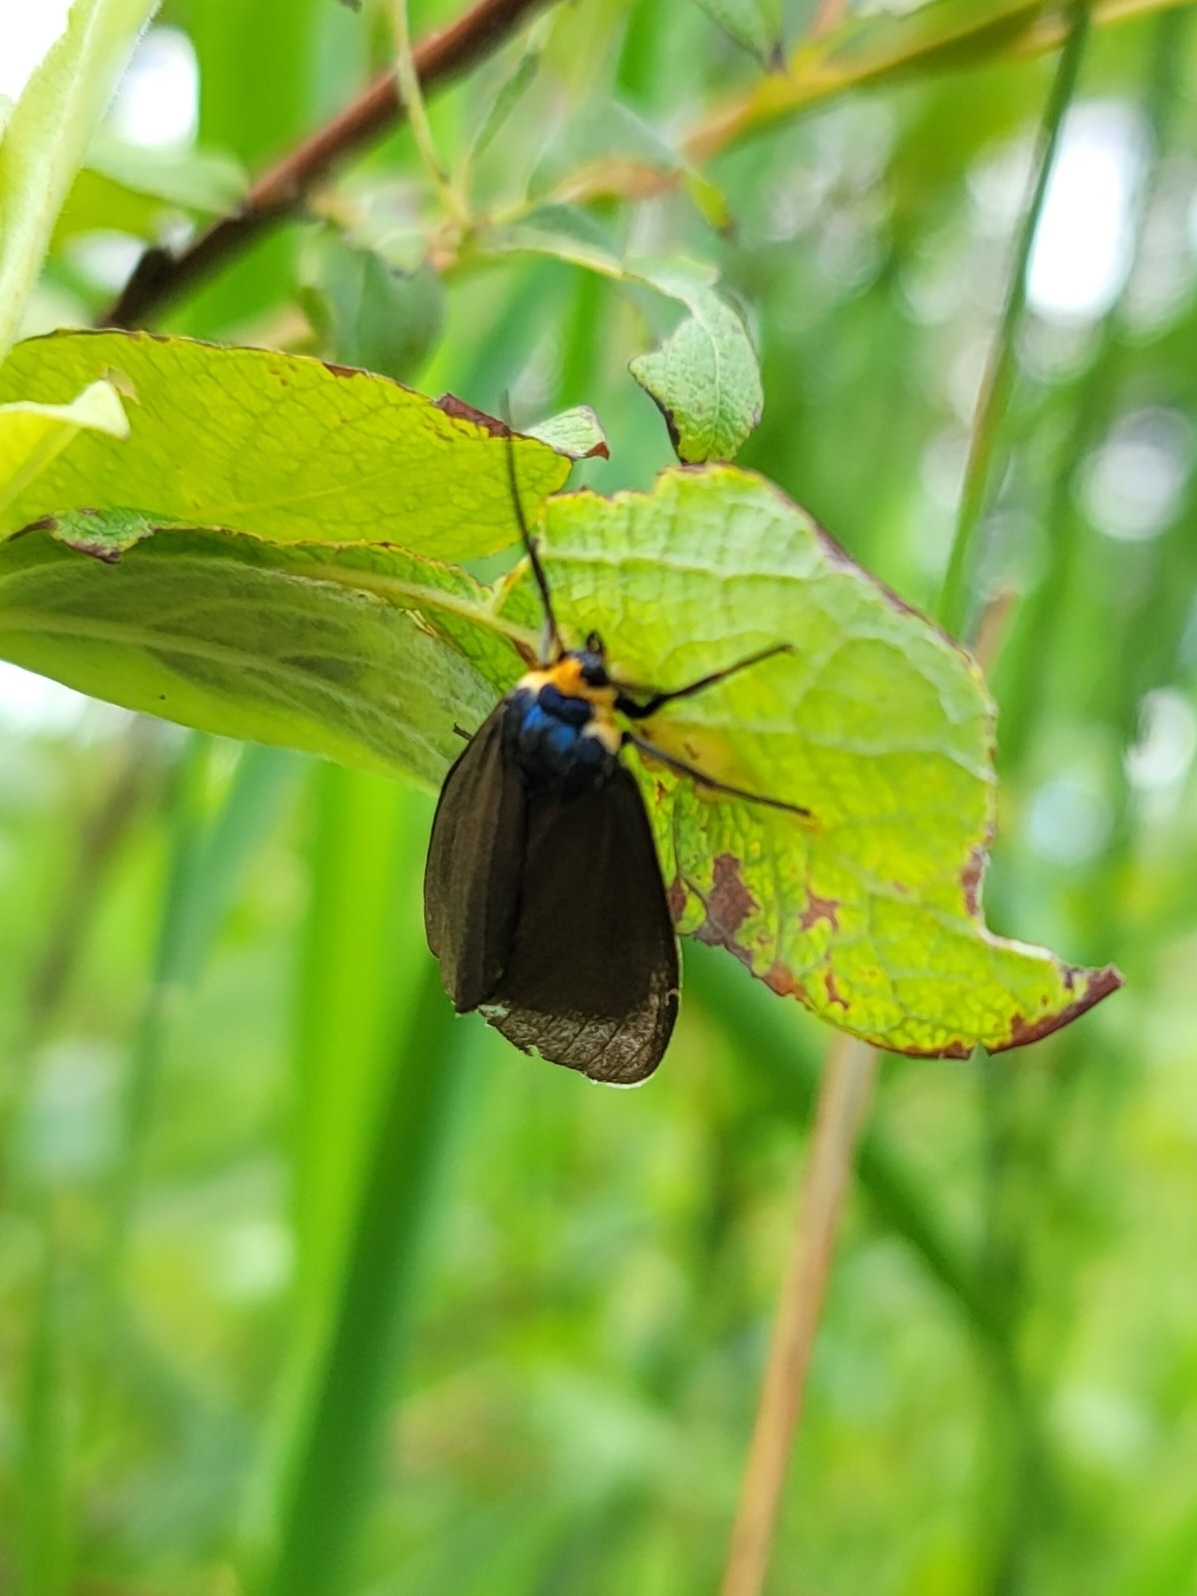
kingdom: Animalia
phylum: Arthropoda
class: Insecta
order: Lepidoptera
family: Erebidae
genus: Ctenucha
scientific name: Ctenucha virginica
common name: Virginia ctenucha moth
